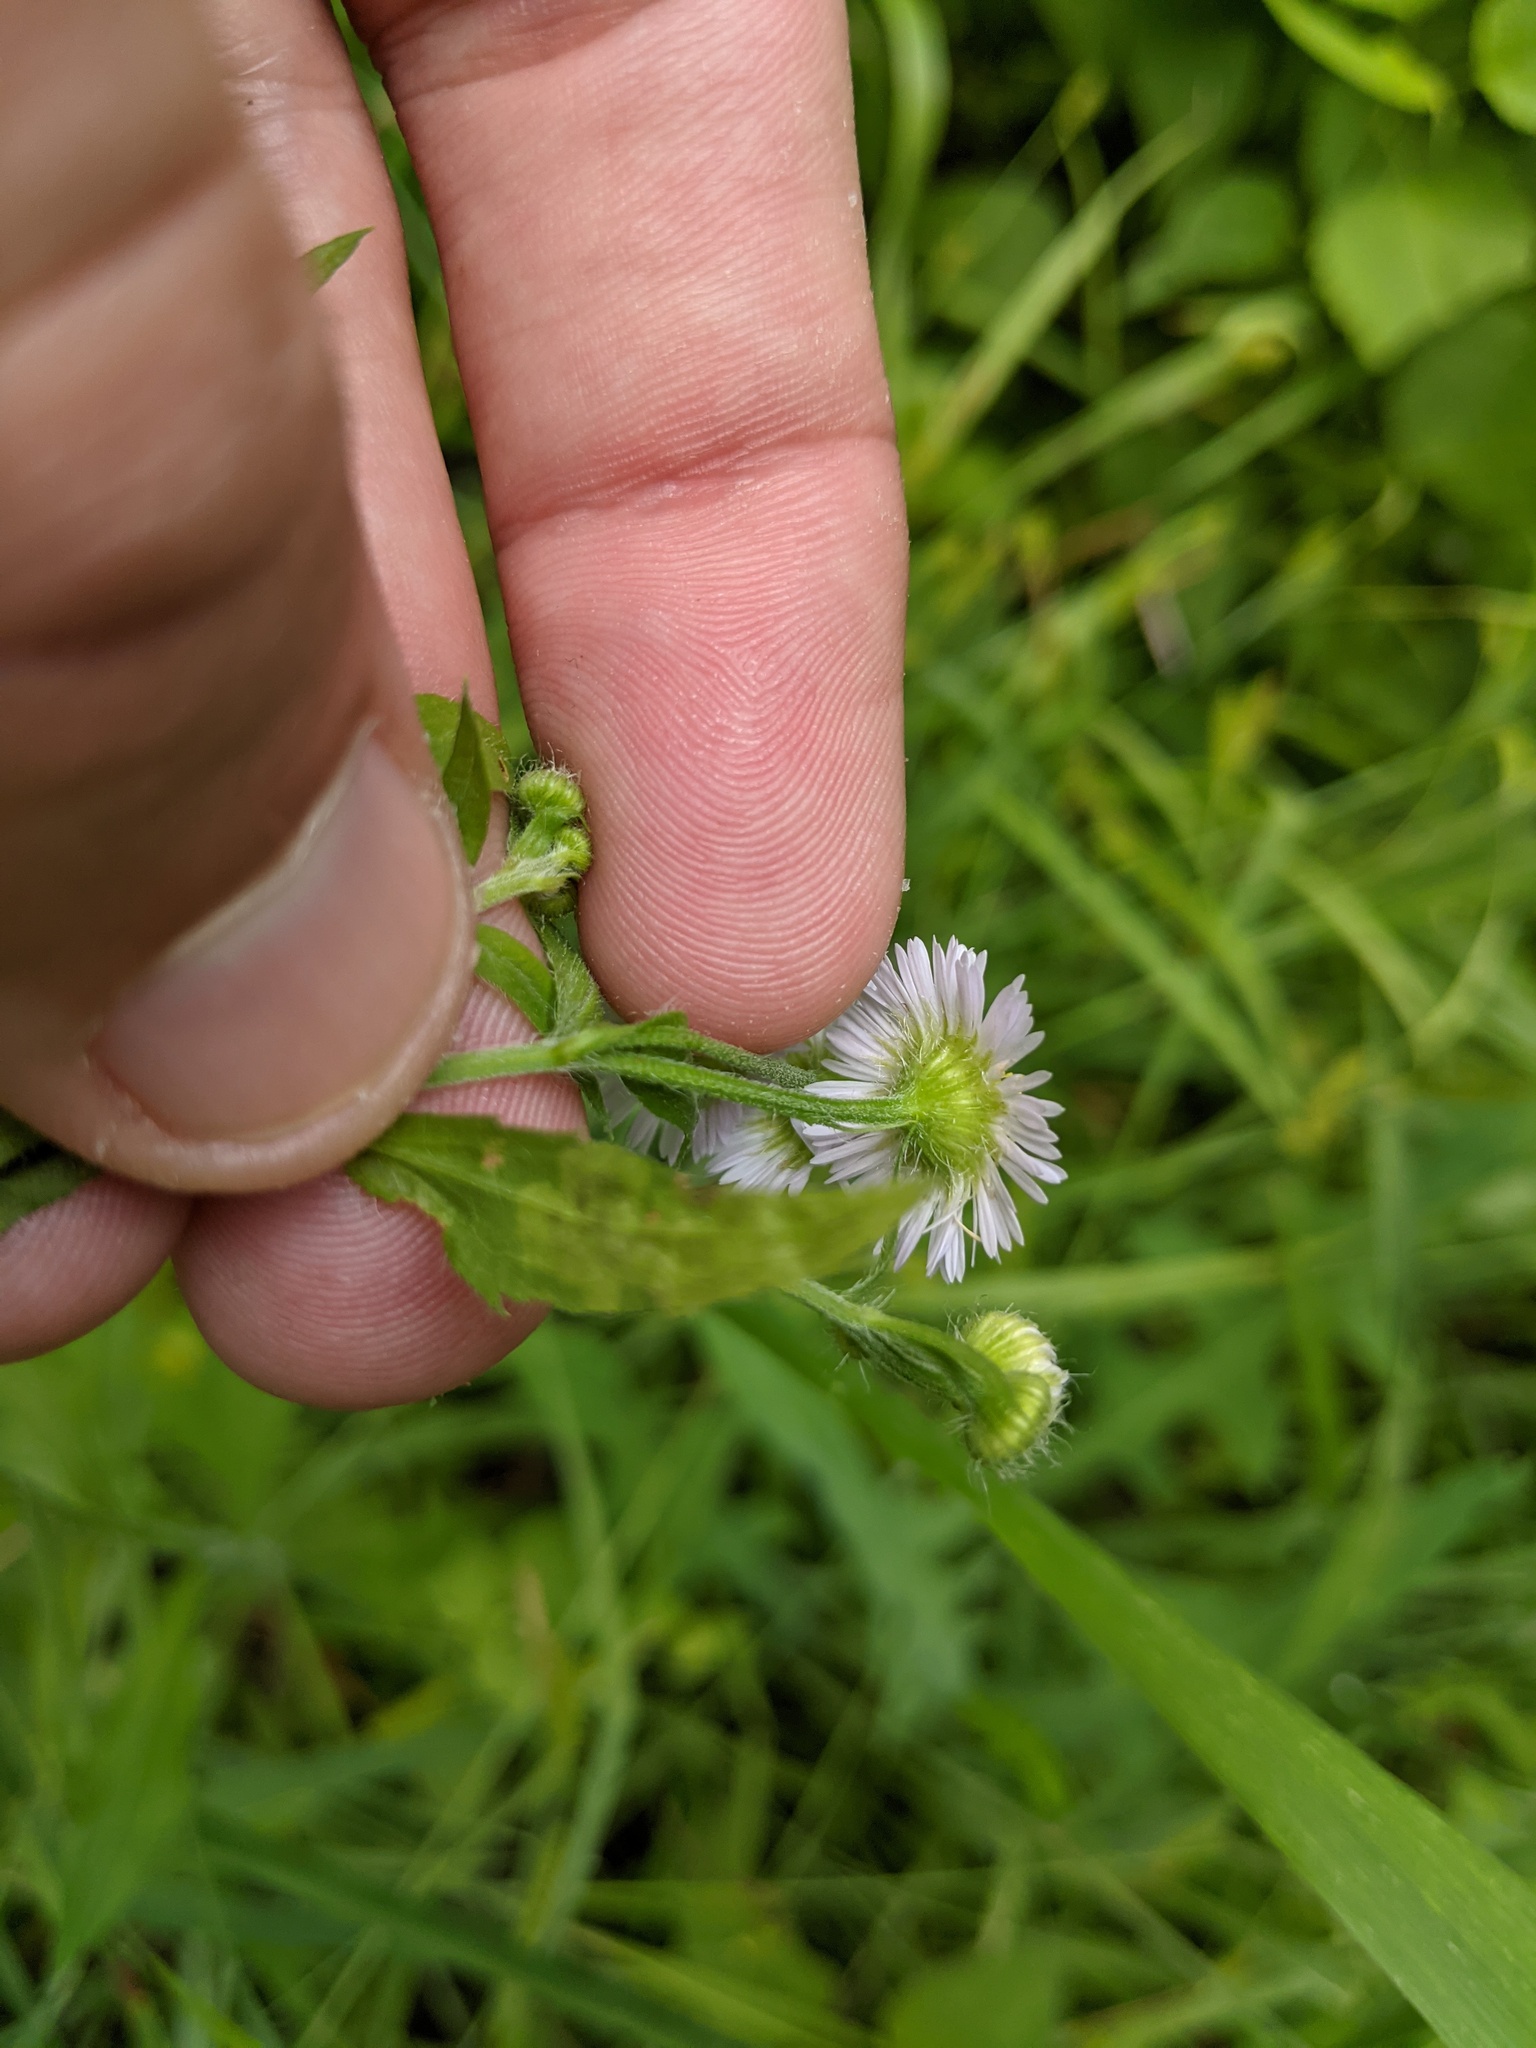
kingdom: Plantae
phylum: Tracheophyta
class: Magnoliopsida
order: Asterales
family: Asteraceae
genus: Erigeron
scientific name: Erigeron annuus
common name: Tall fleabane
